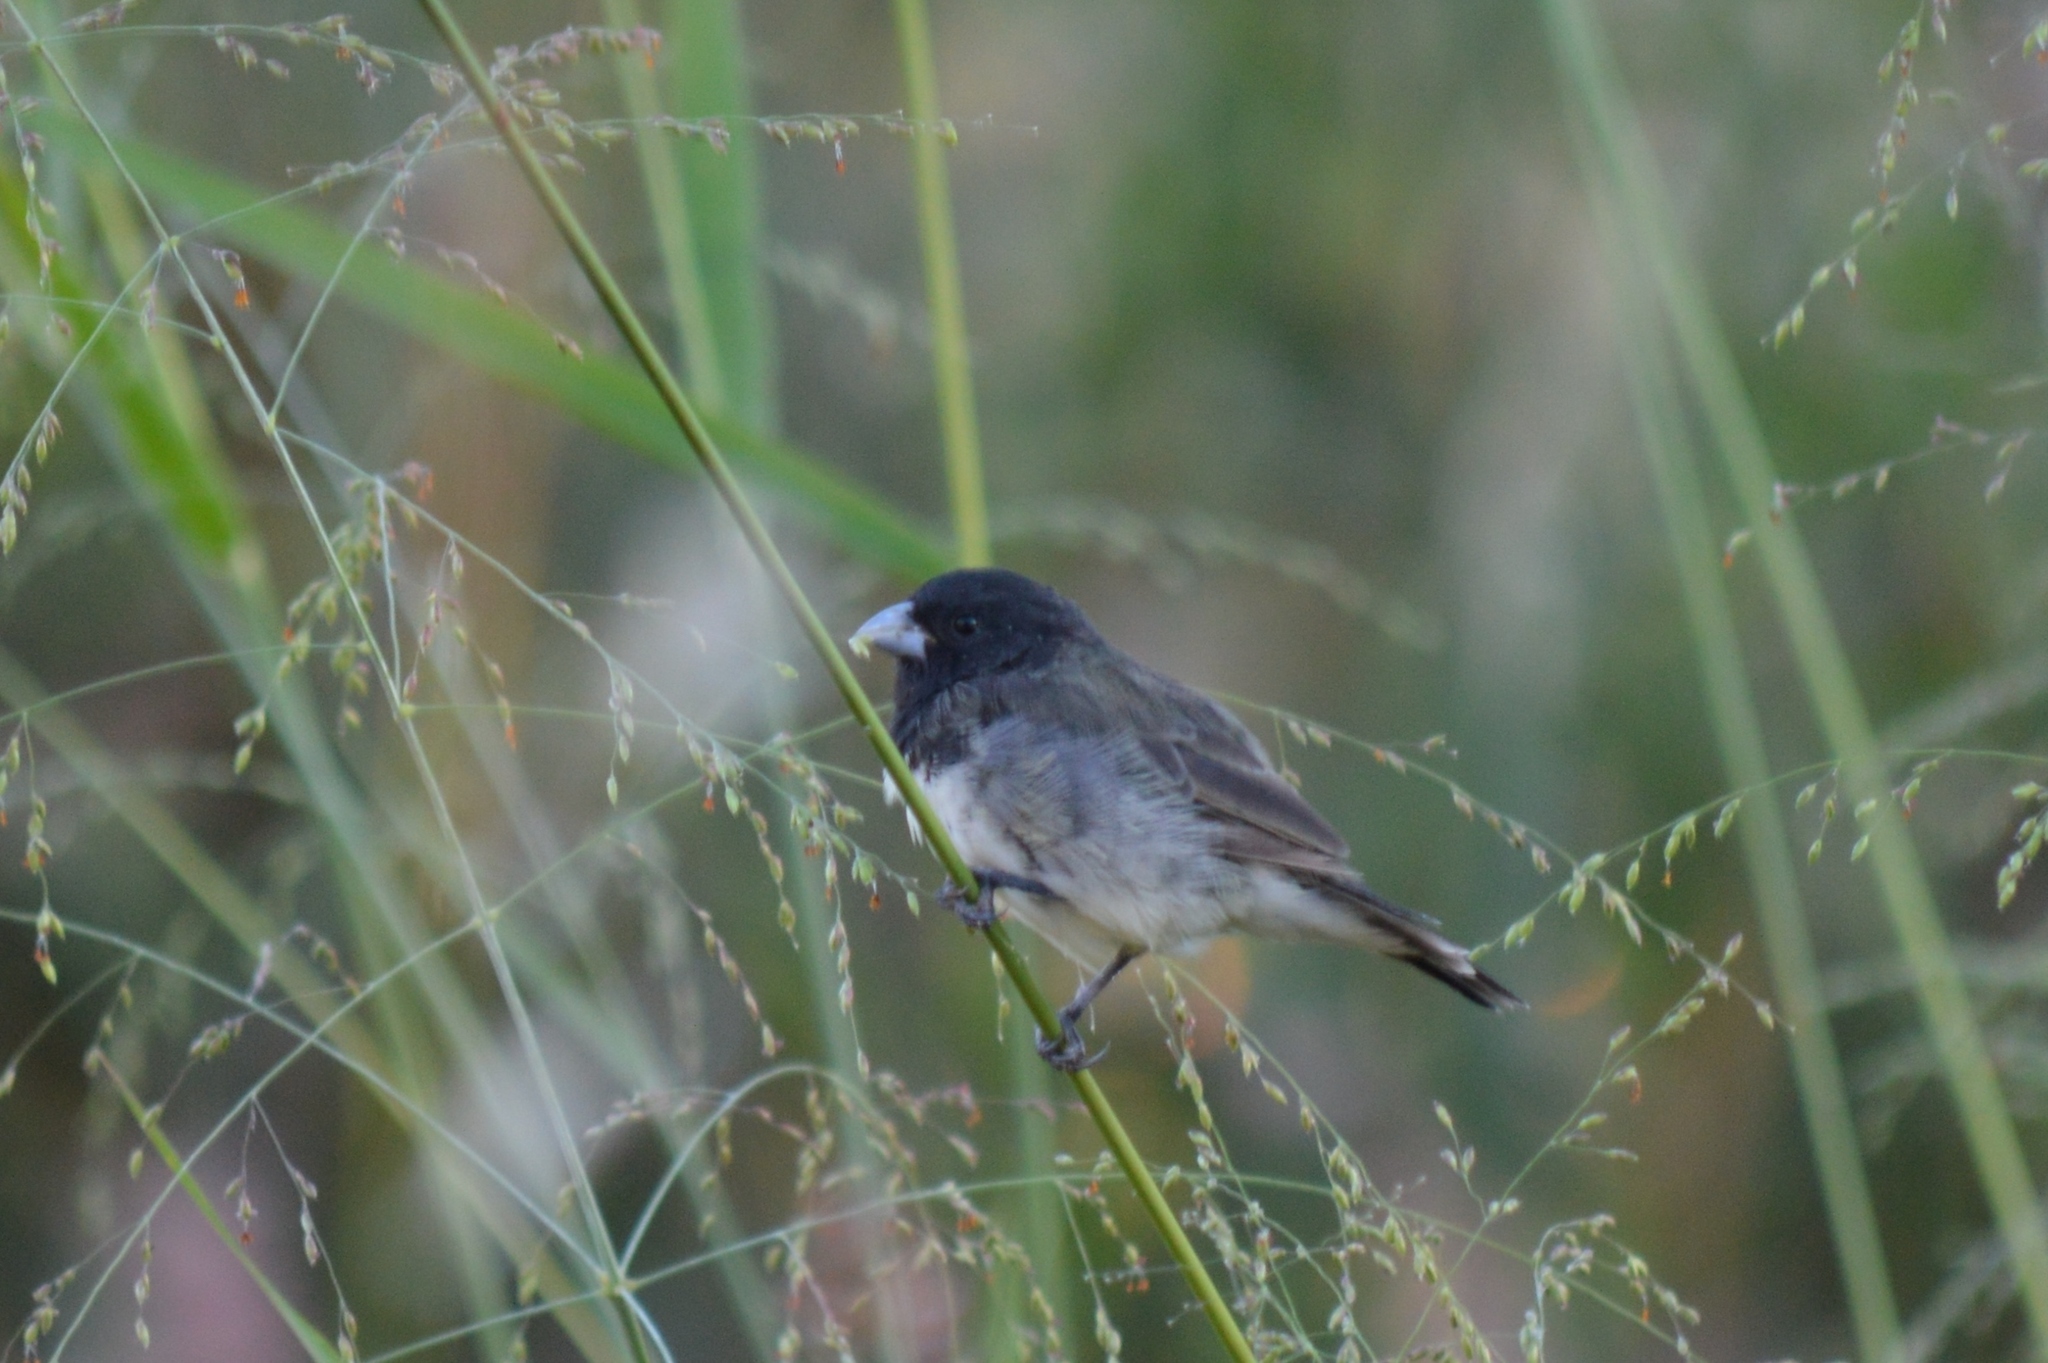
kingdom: Animalia
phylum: Chordata
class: Aves
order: Passeriformes
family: Thraupidae
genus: Sporophila
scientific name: Sporophila nigricollis
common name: Yellow-bellied seedeater
